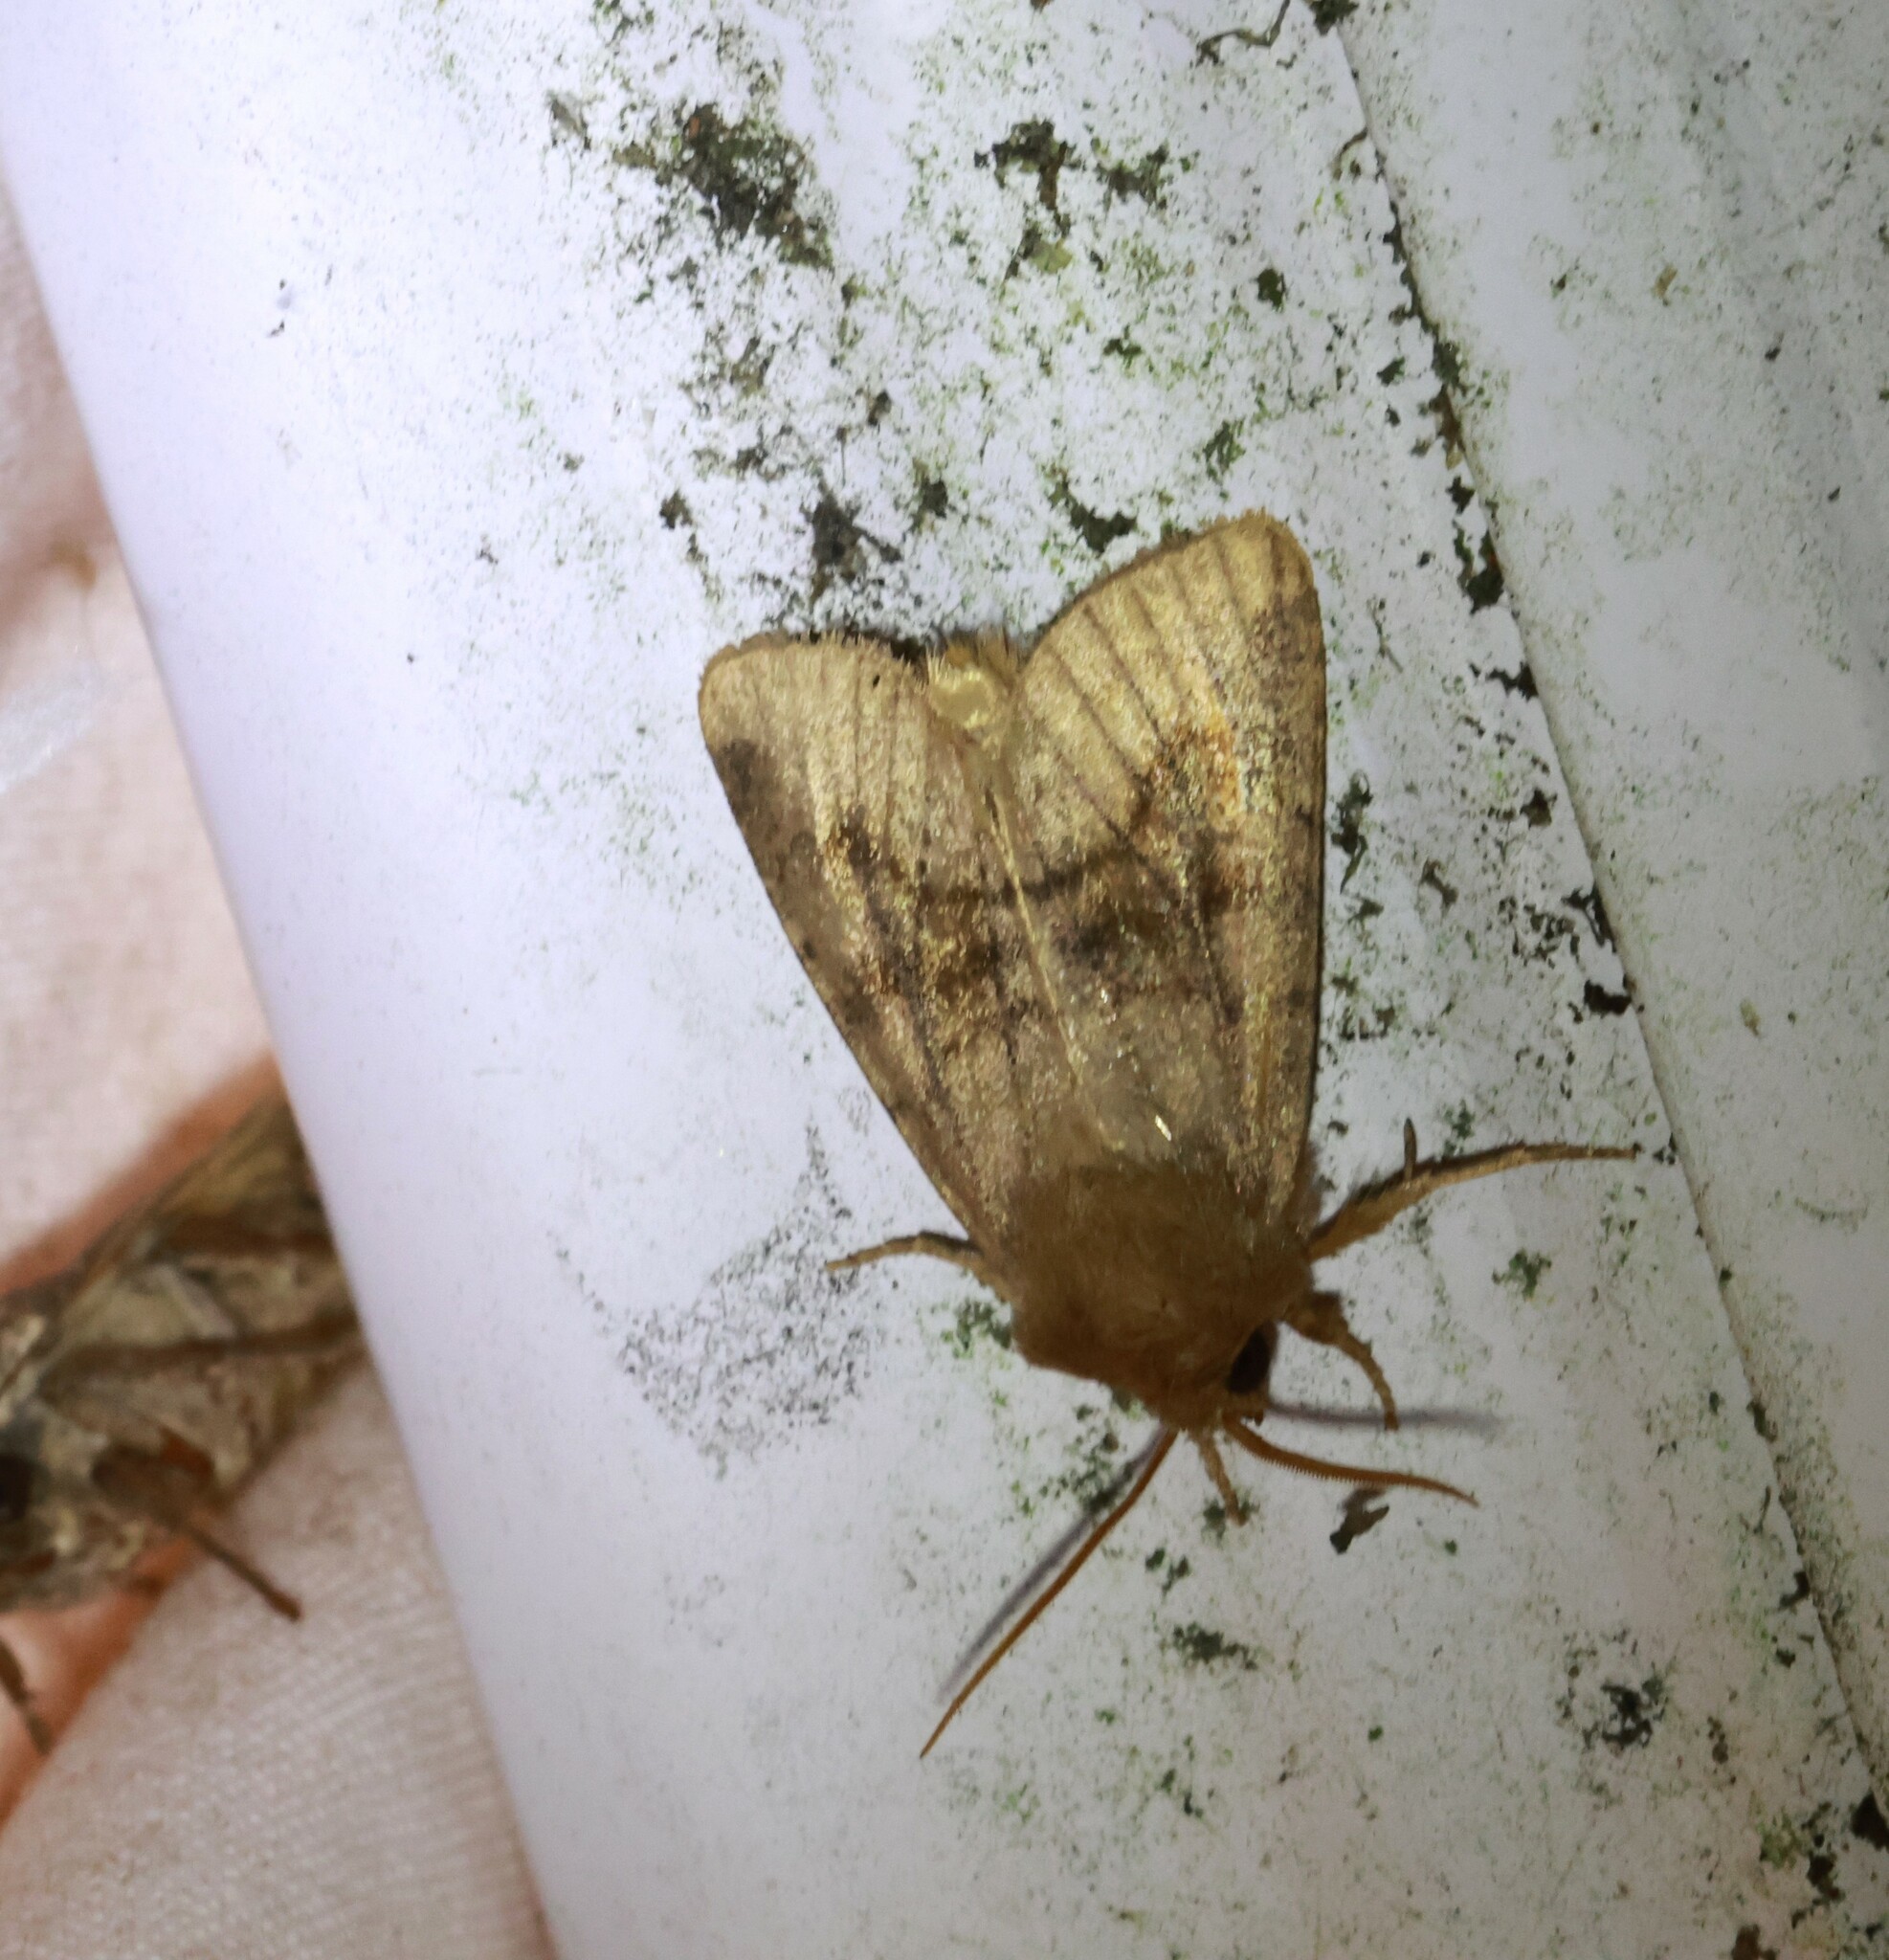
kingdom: Animalia
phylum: Arthropoda
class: Insecta
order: Lepidoptera
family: Noctuidae
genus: Nephelodes
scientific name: Nephelodes minians
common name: Bronzed cutworm
